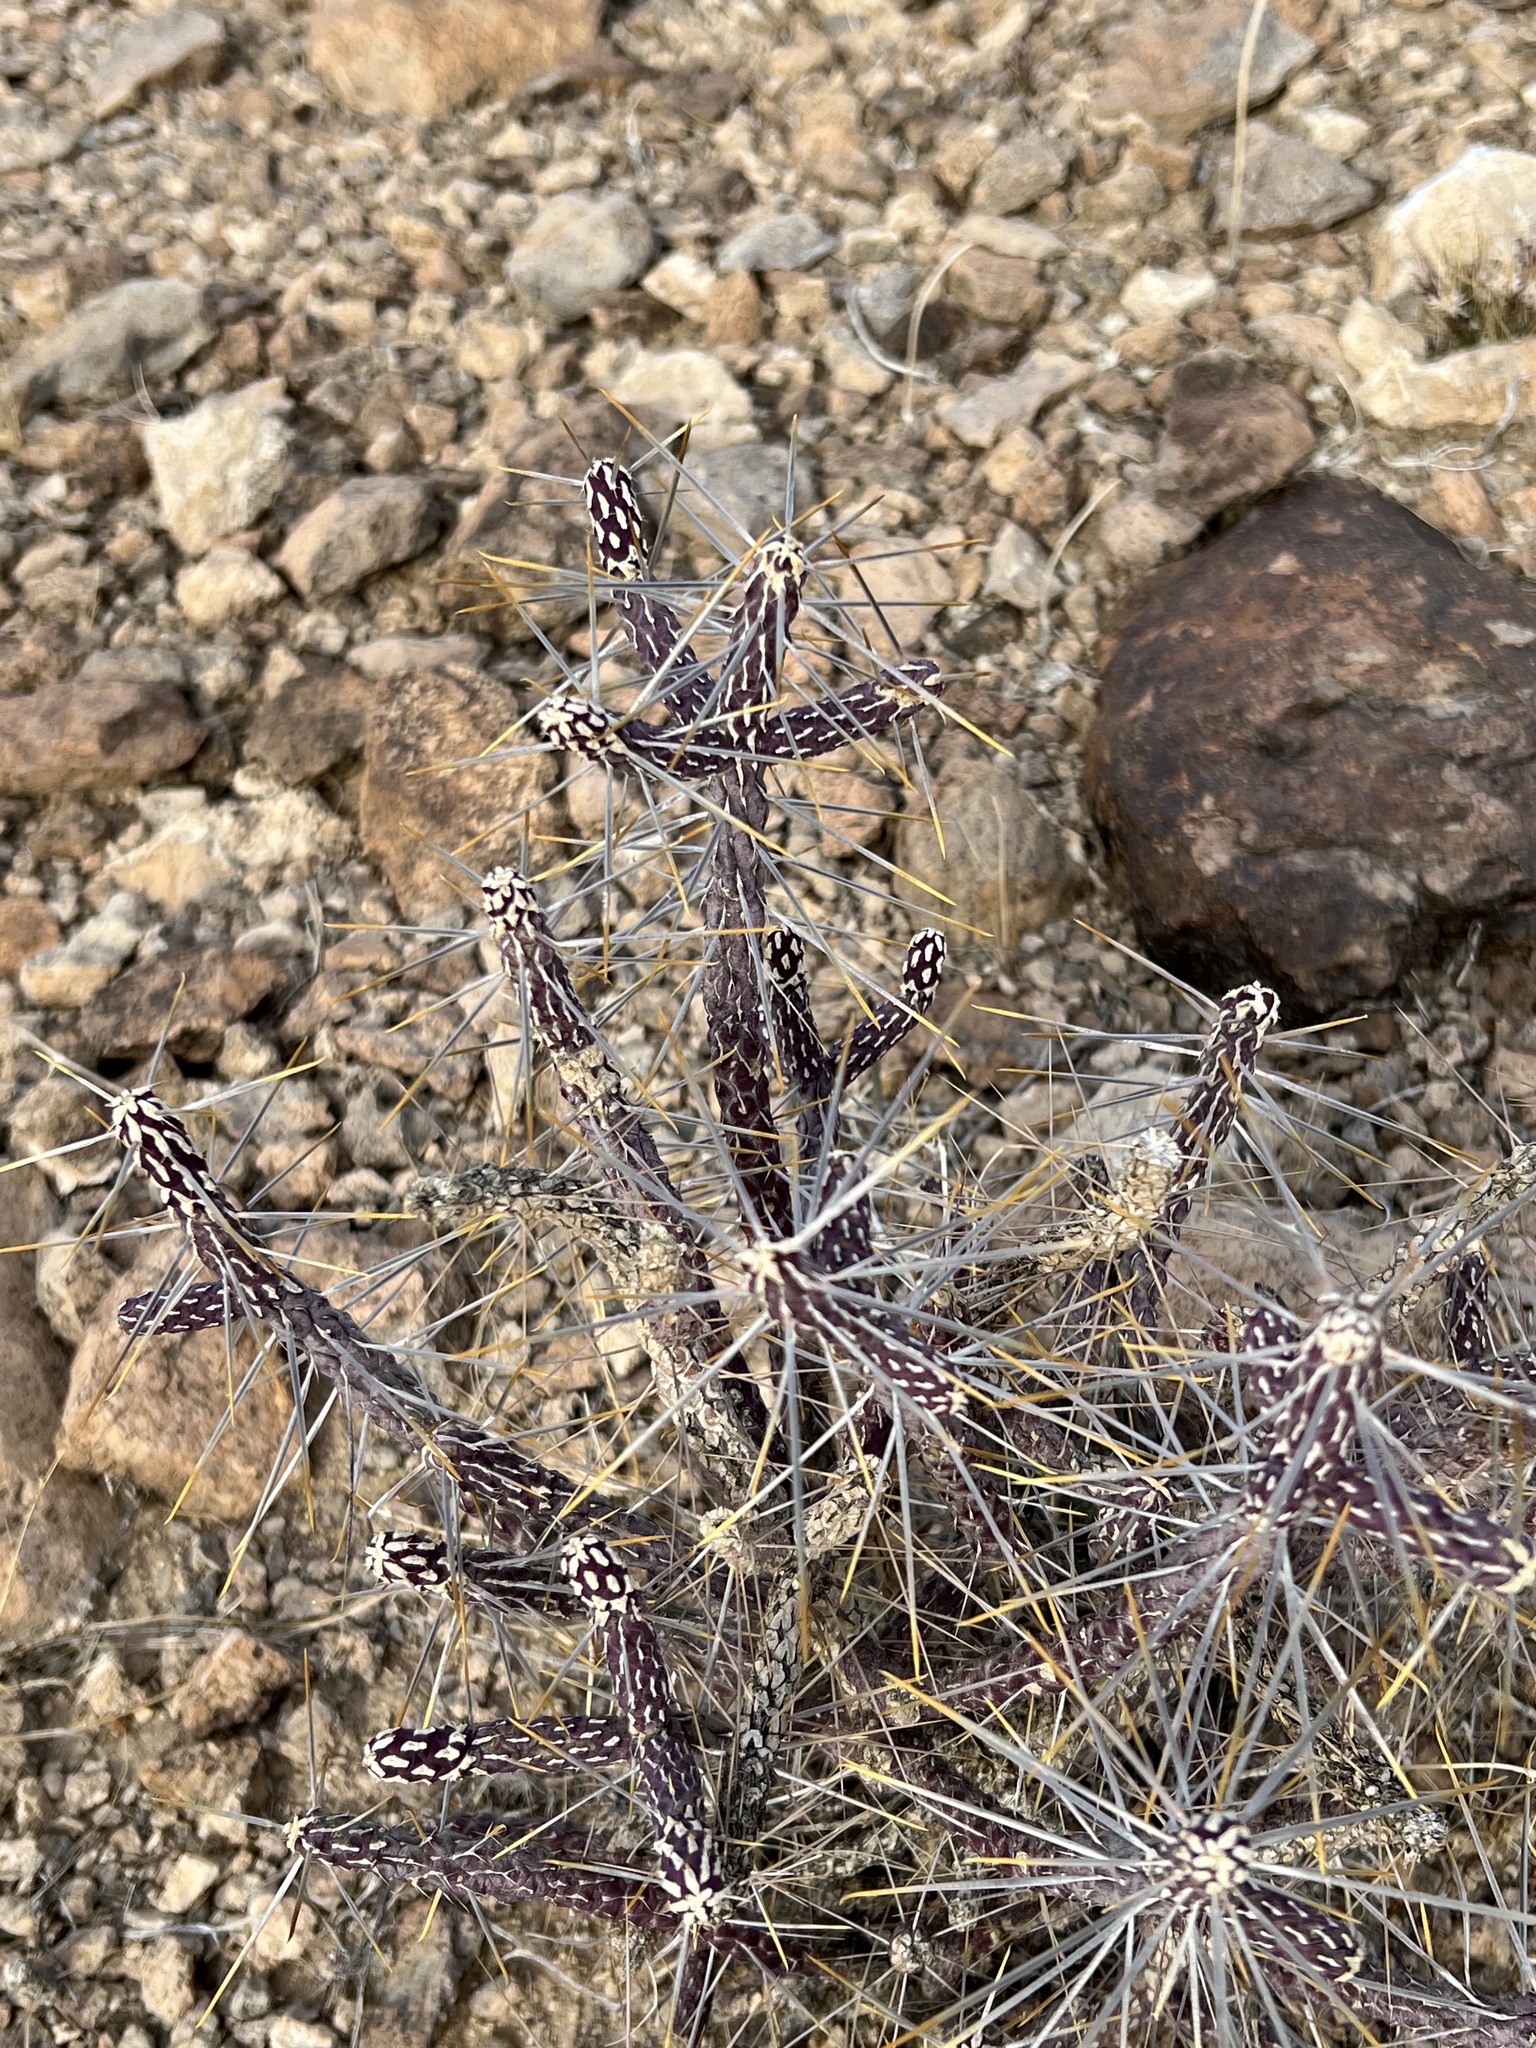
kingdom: Plantae
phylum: Tracheophyta
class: Magnoliopsida
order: Caryophyllales
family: Cactaceae
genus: Cylindropuntia
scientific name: Cylindropuntia ramosissima
